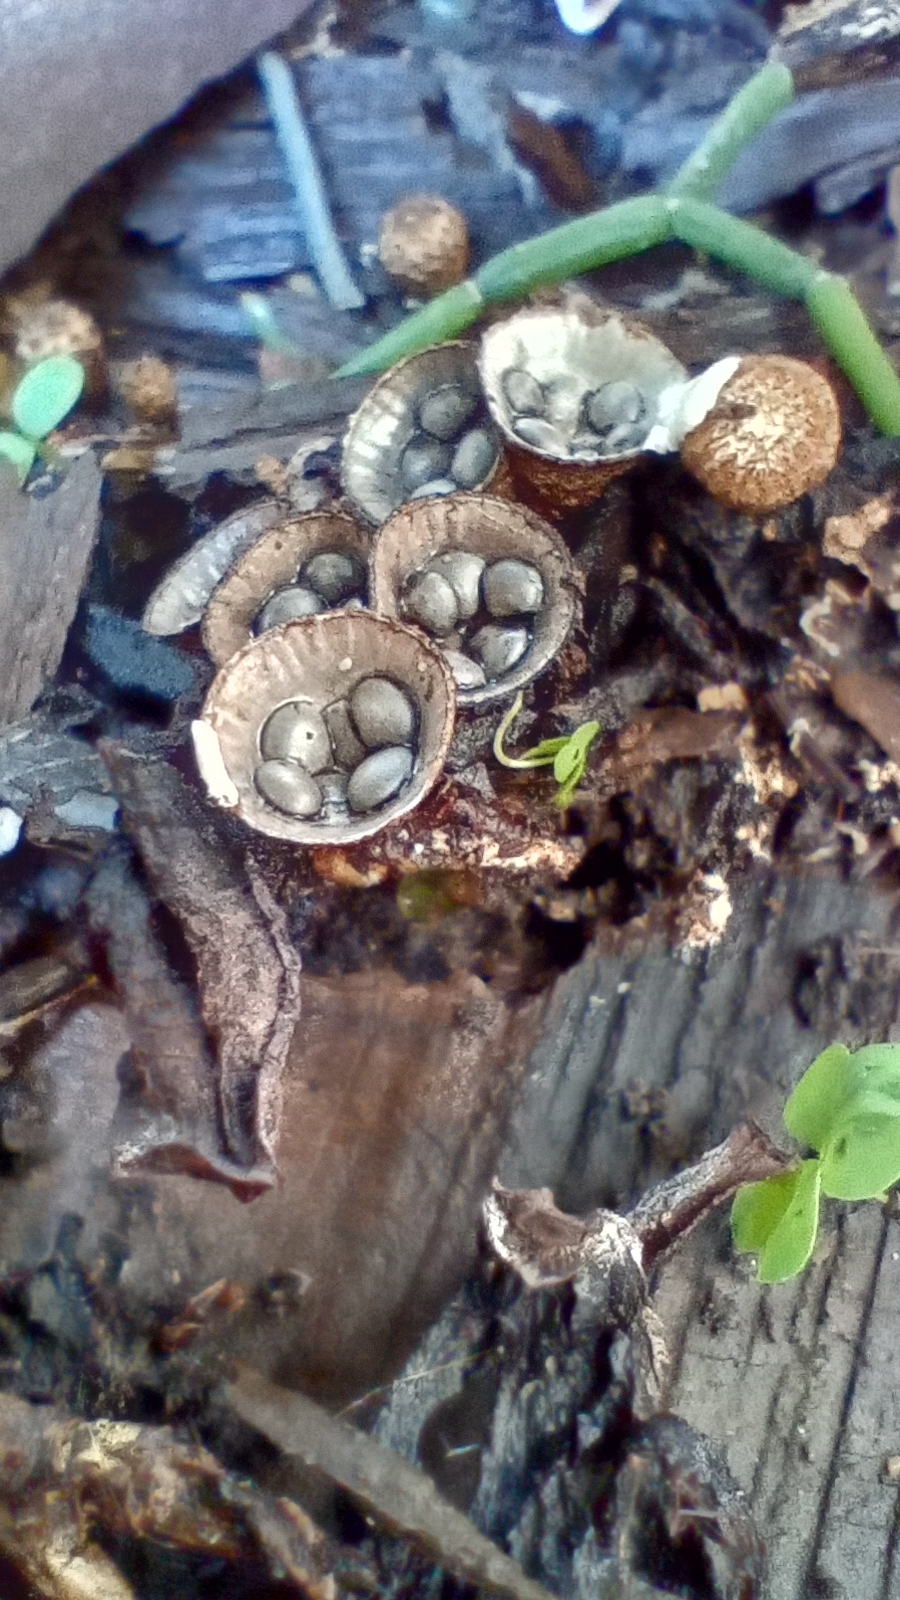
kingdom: Fungi
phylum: Basidiomycota
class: Agaricomycetes
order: Agaricales
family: Agaricaceae
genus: Cyathus
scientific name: Cyathus stercoreus
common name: Dung bird's nest
